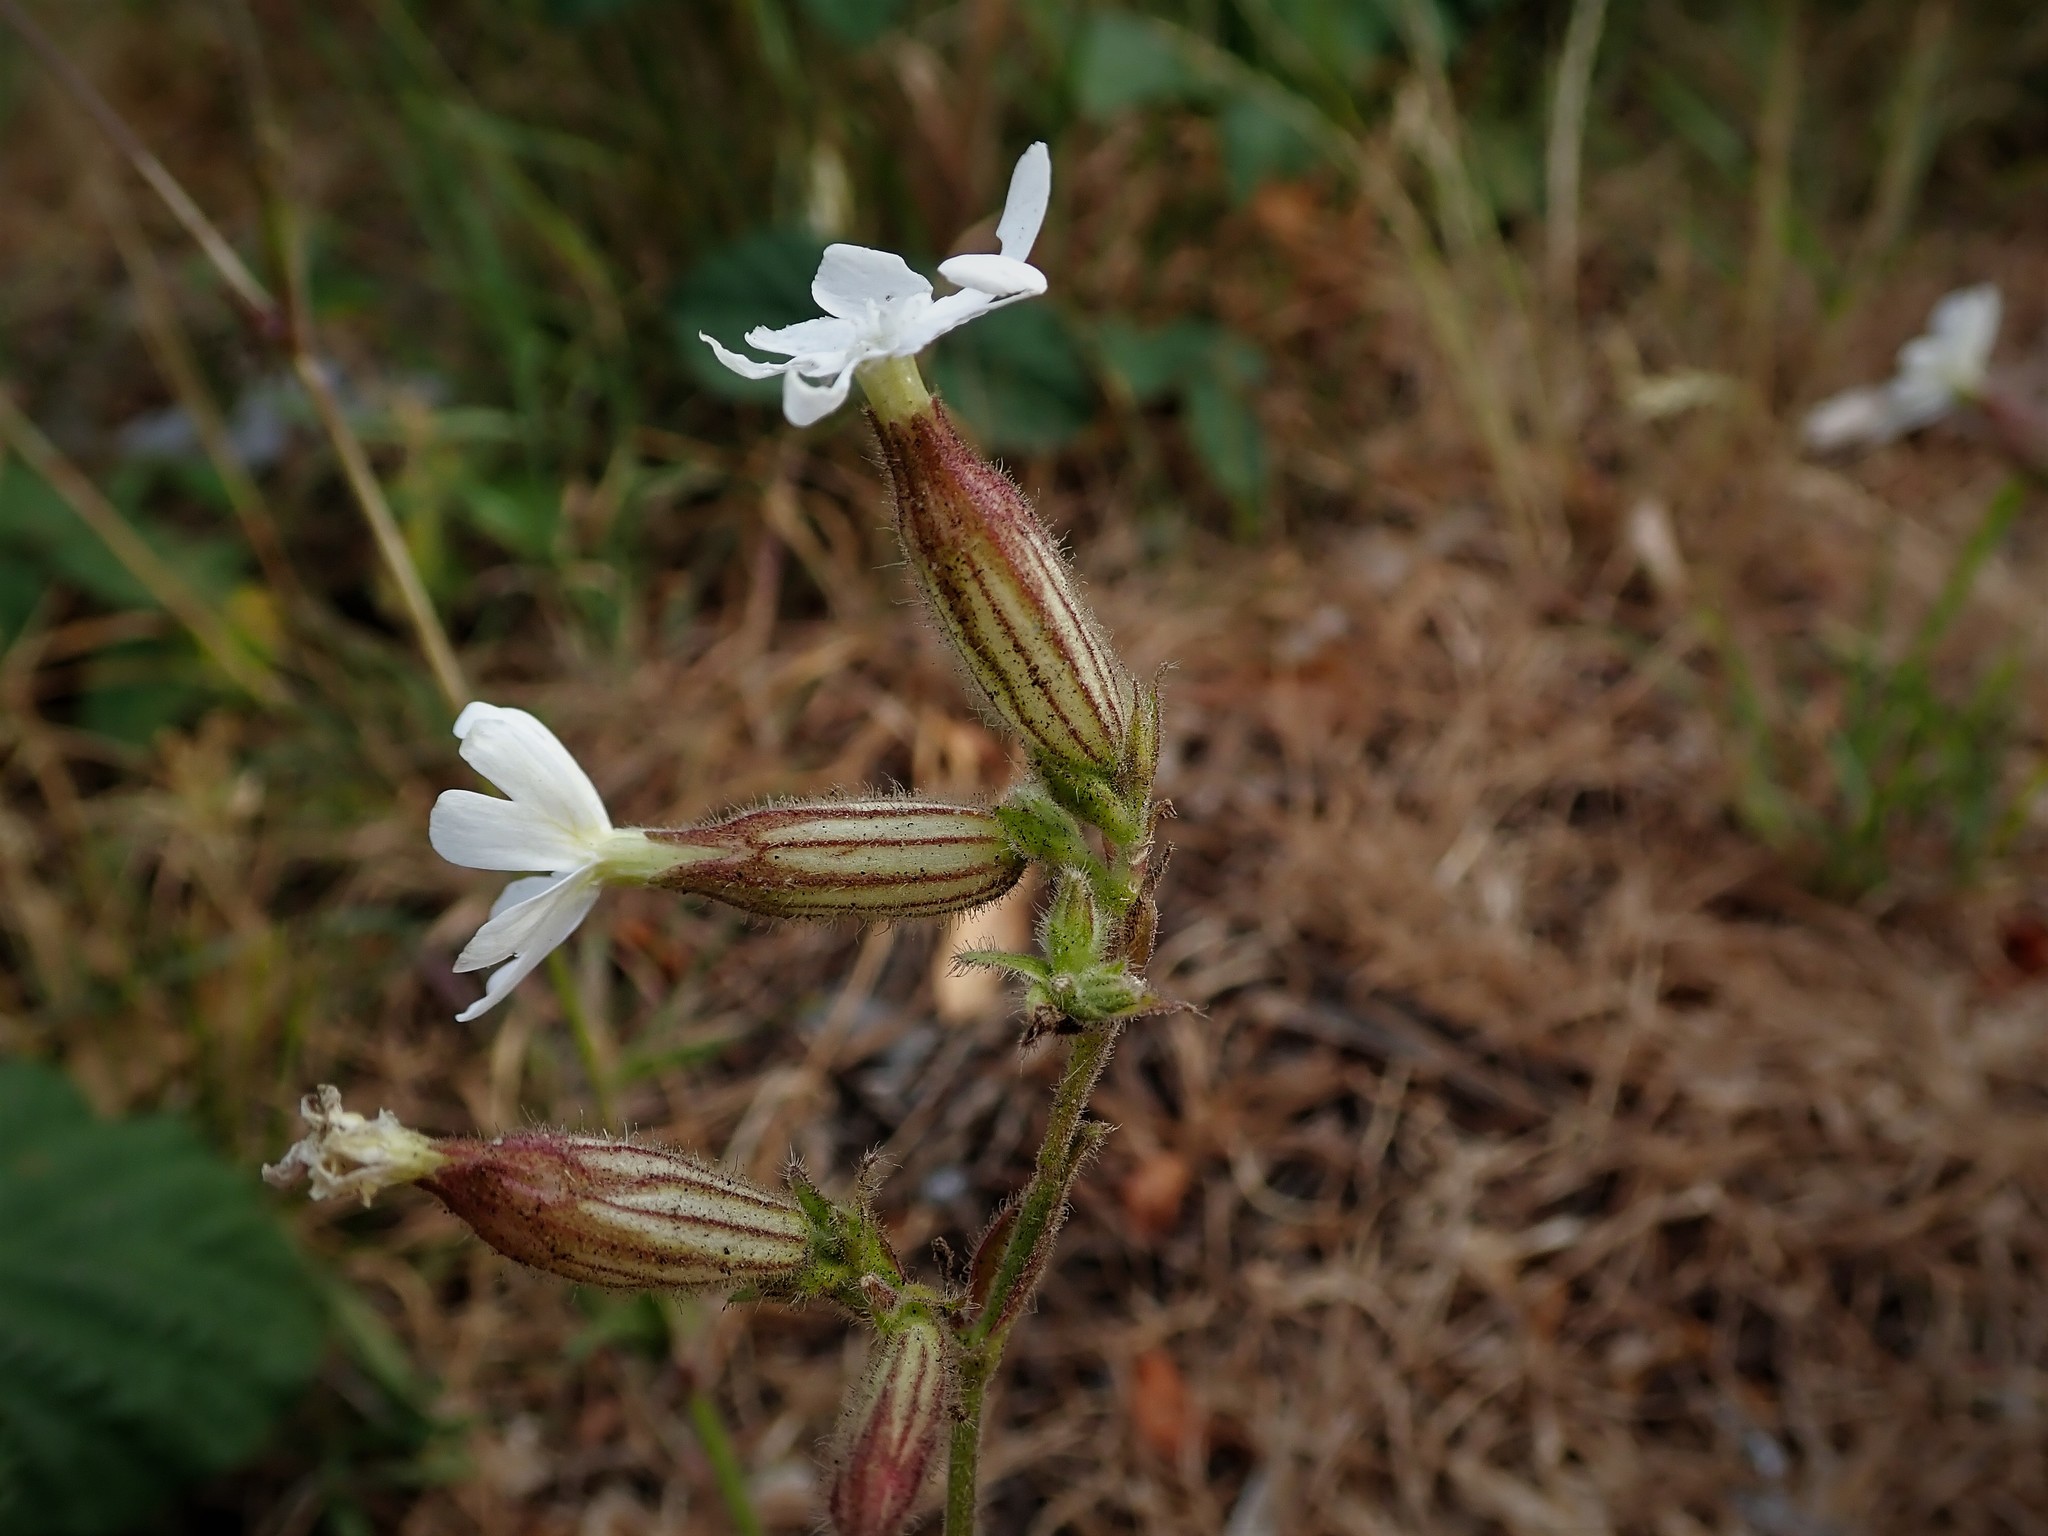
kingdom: Plantae
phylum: Tracheophyta
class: Magnoliopsida
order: Caryophyllales
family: Caryophyllaceae
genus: Silene
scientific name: Silene latifolia
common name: White campion
